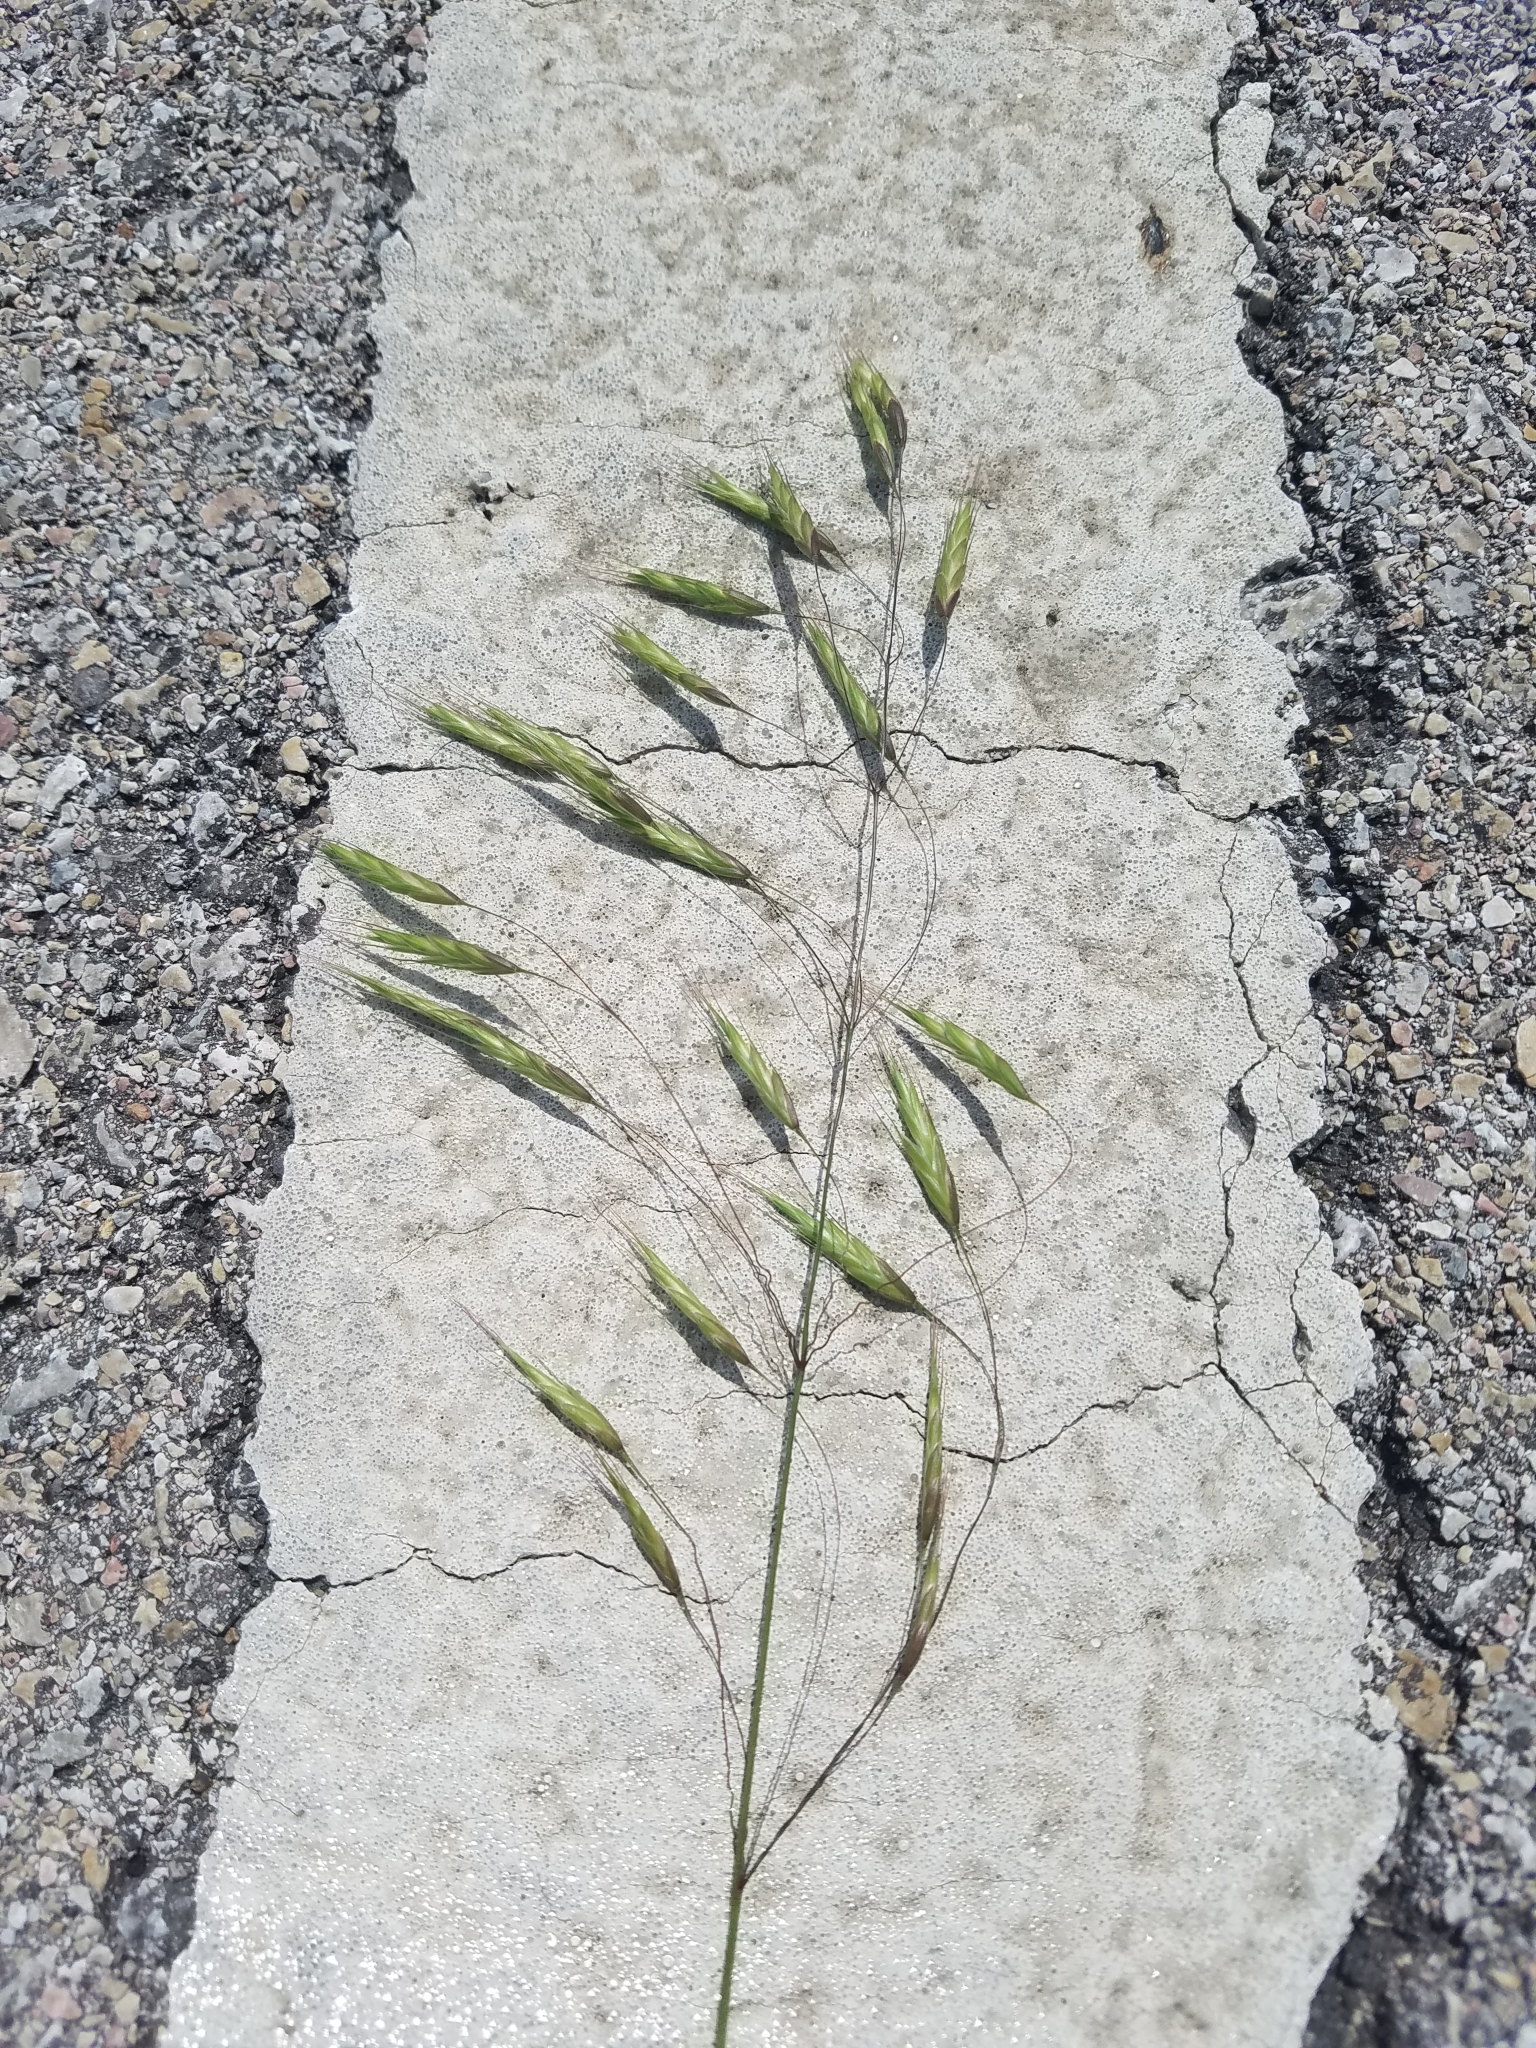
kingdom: Plantae
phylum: Tracheophyta
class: Liliopsida
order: Poales
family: Poaceae
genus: Bromus
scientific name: Bromus japonicus
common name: Japanese brome
